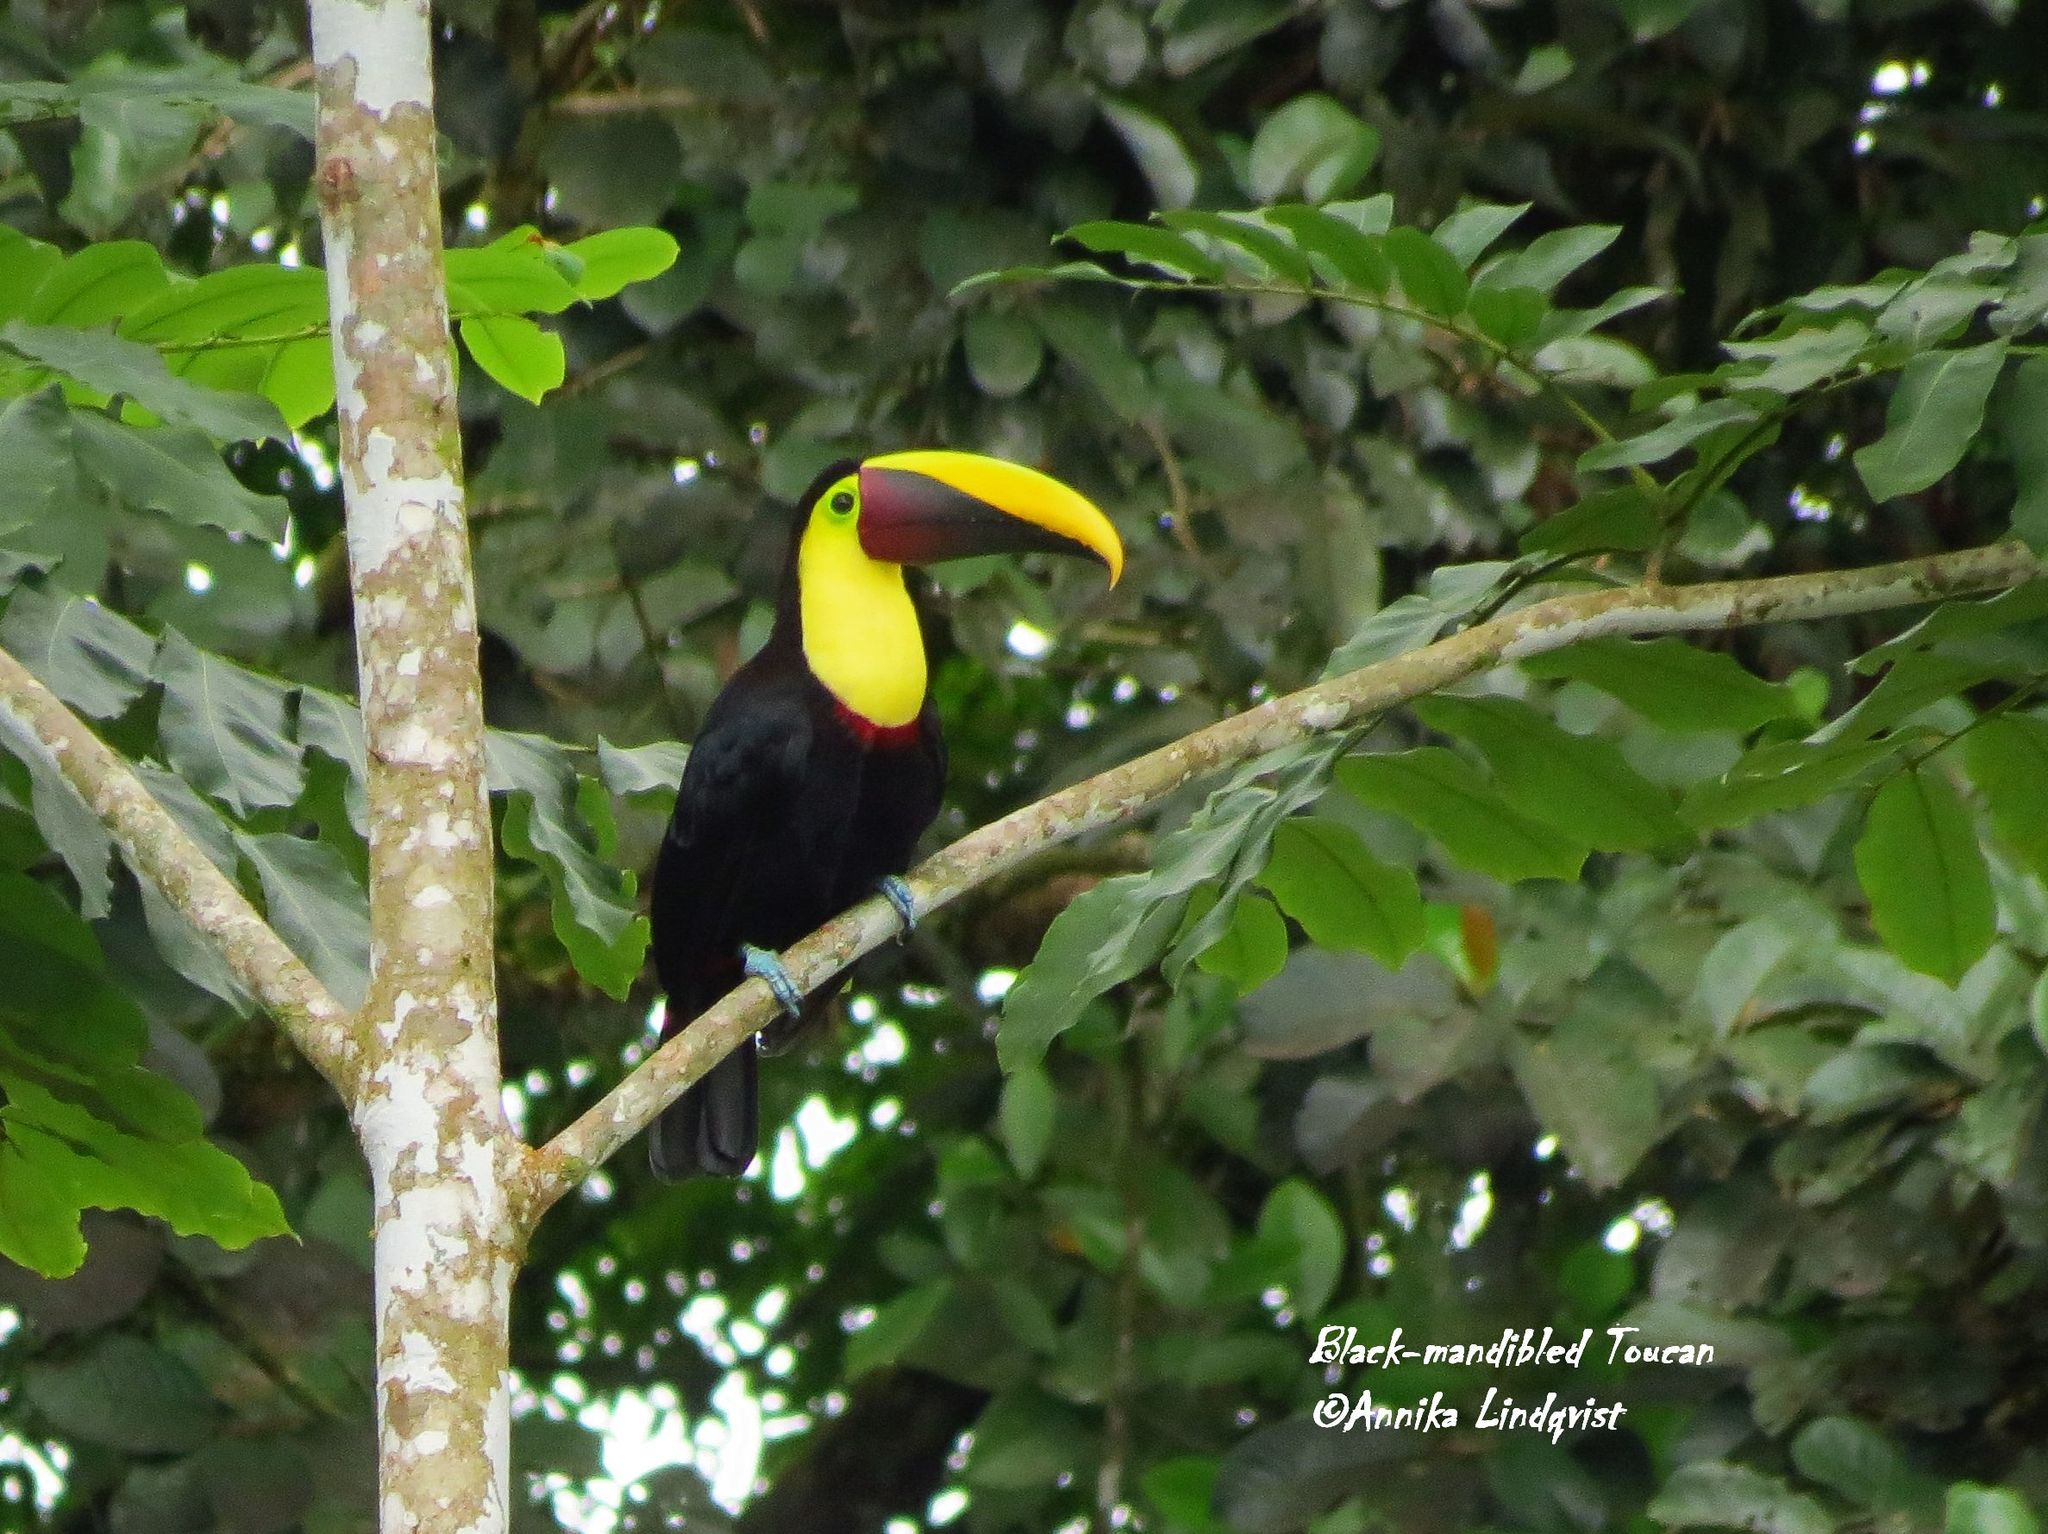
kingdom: Animalia
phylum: Chordata
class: Aves
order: Piciformes
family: Ramphastidae
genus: Ramphastos
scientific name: Ramphastos ambiguus
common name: Yellow-throated toucan
